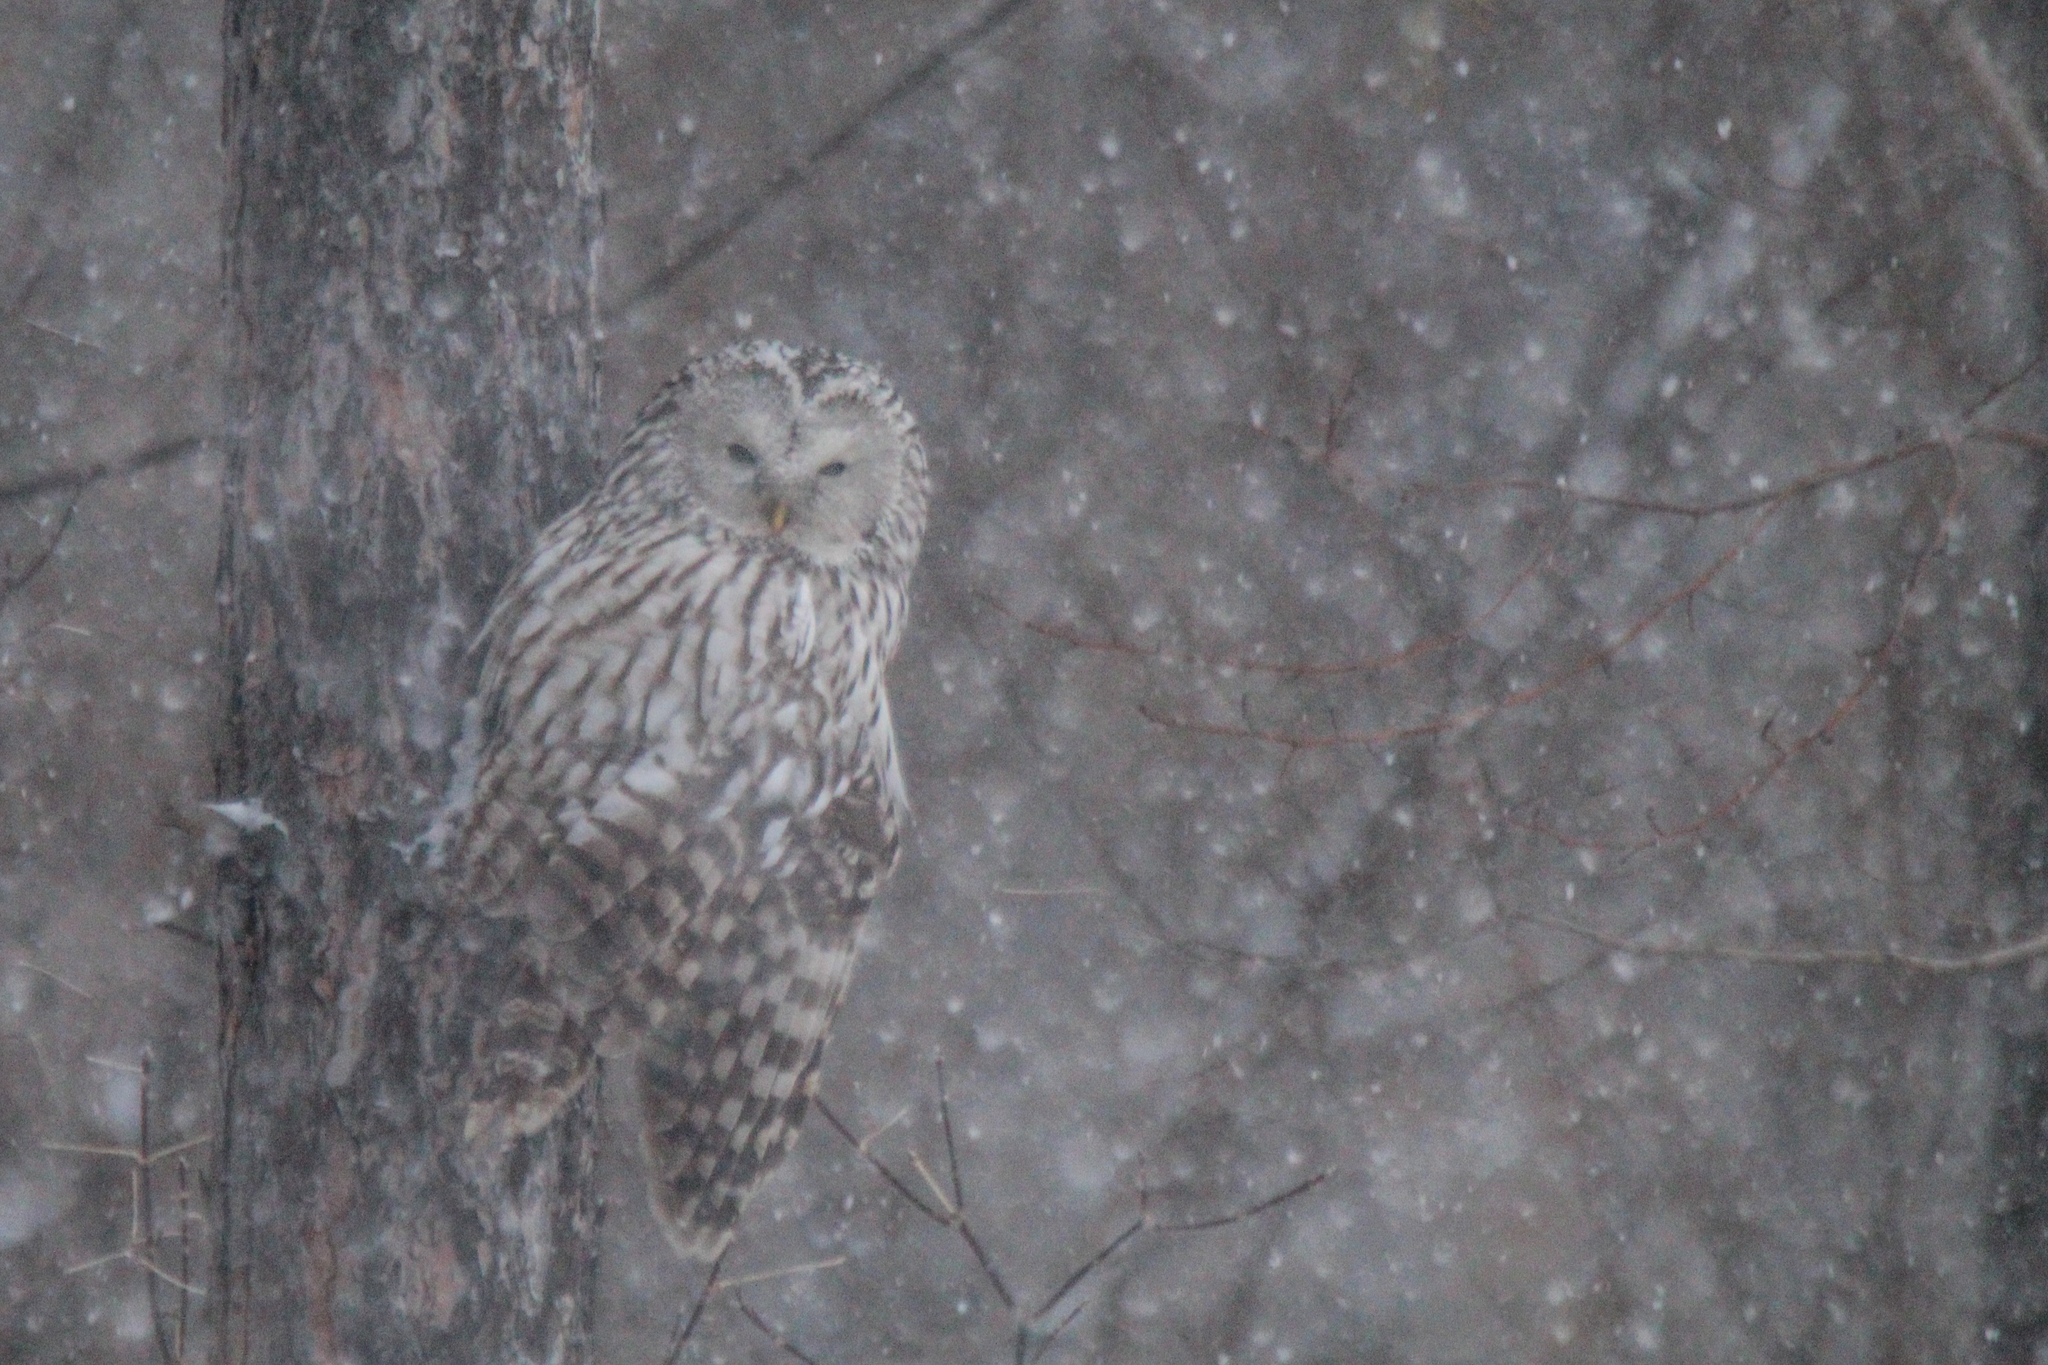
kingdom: Animalia
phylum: Chordata
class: Aves
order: Strigiformes
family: Strigidae
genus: Strix
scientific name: Strix uralensis
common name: Ural owl
